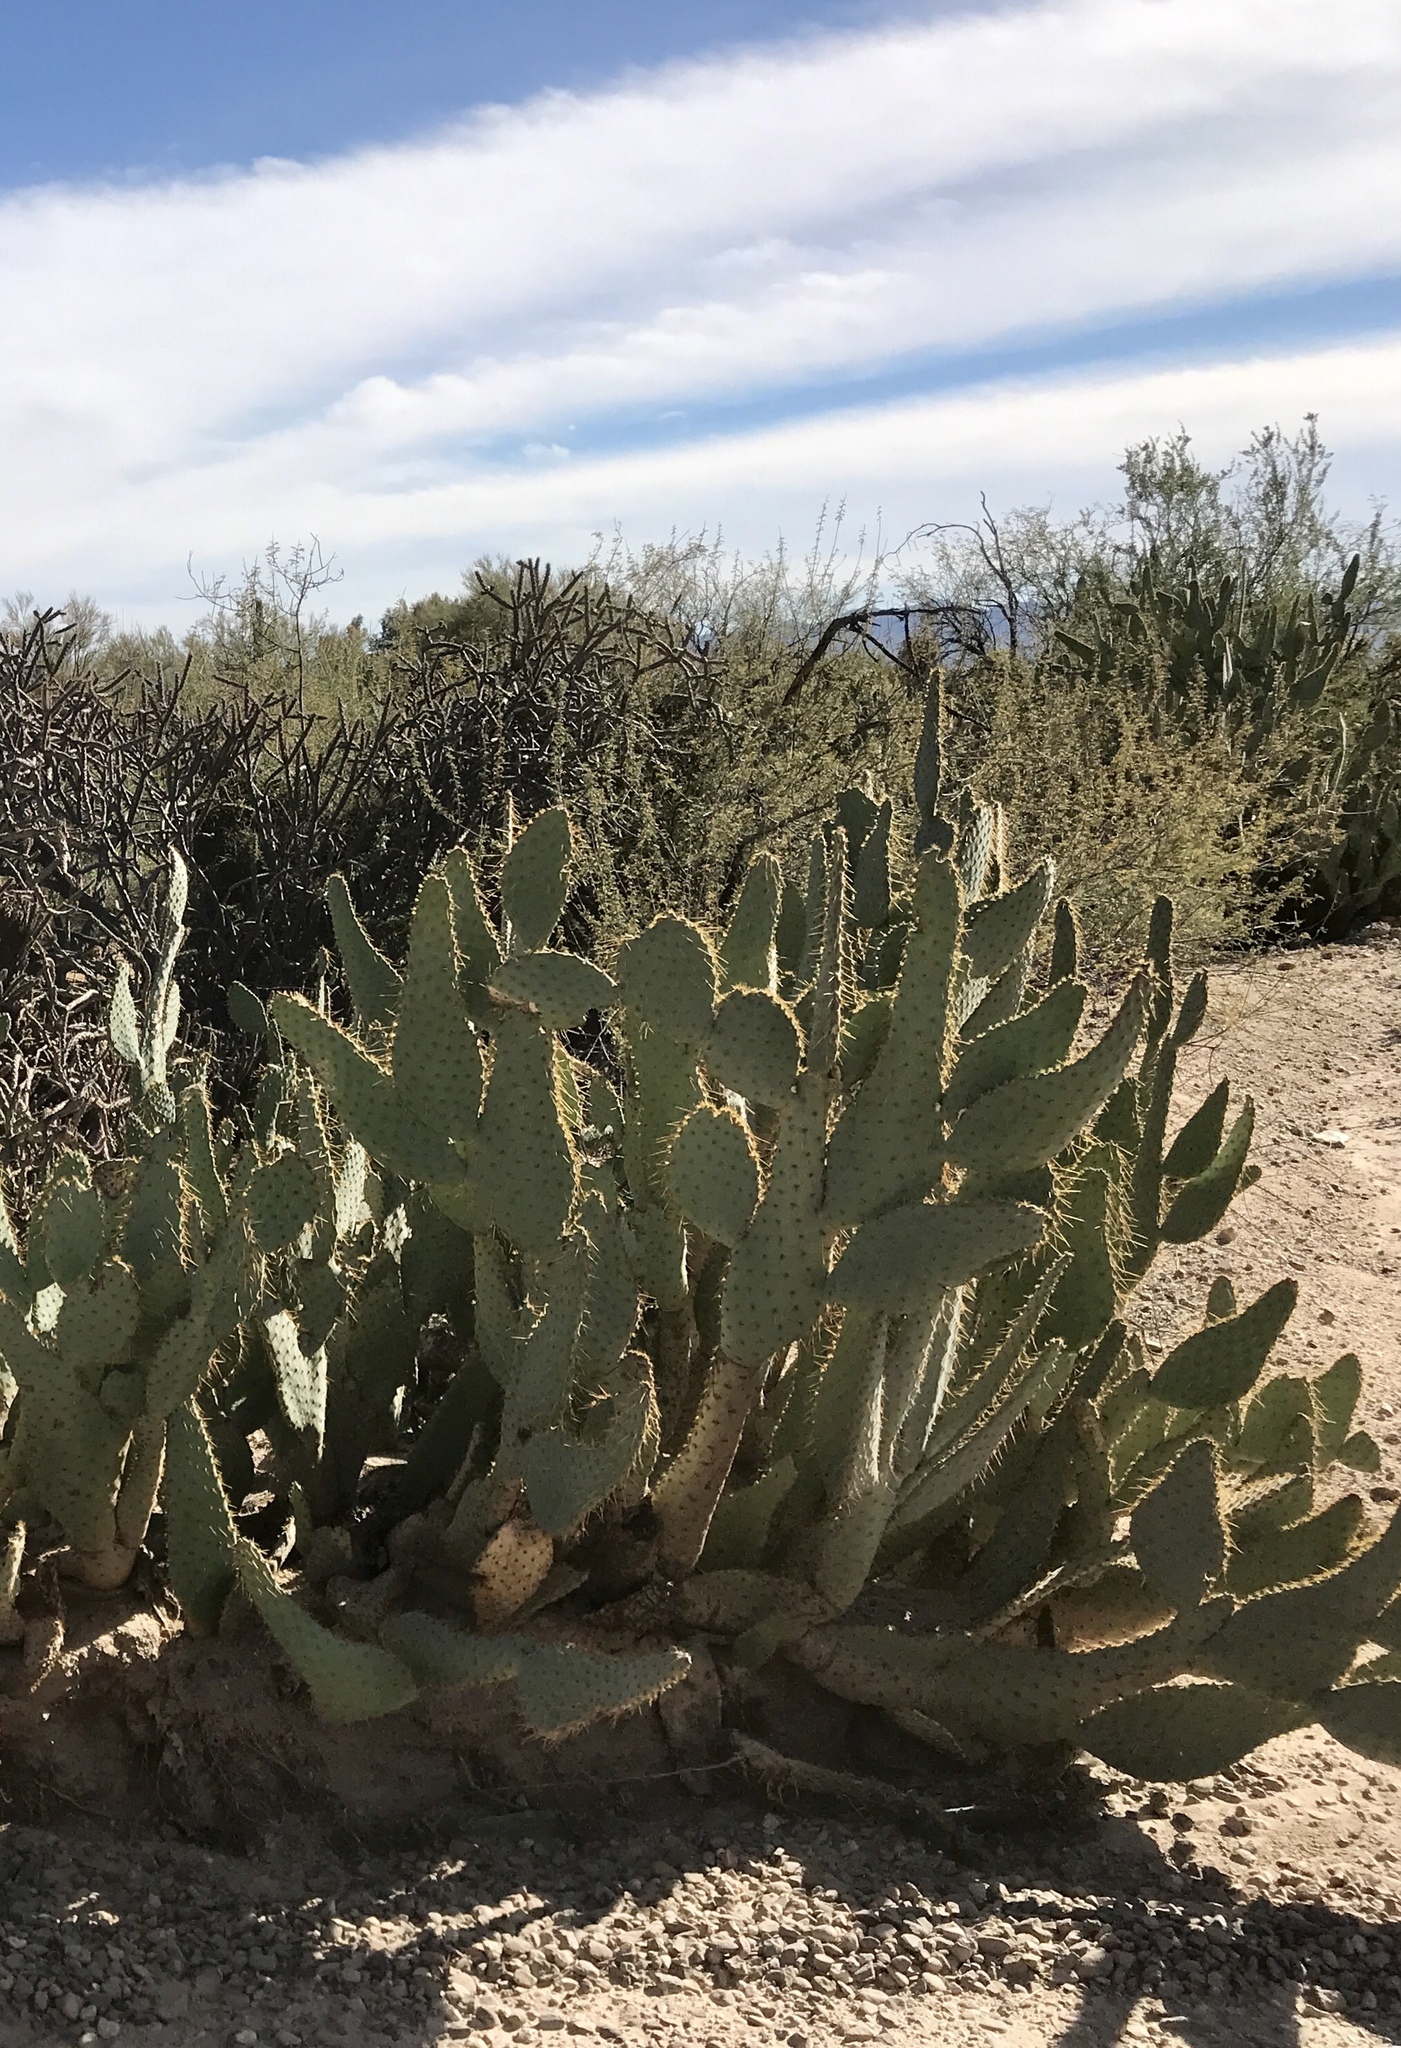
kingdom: Plantae
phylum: Tracheophyta
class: Magnoliopsida
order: Caryophyllales
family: Cactaceae
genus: Opuntia
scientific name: Opuntia engelmannii
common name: Cactus-apple
